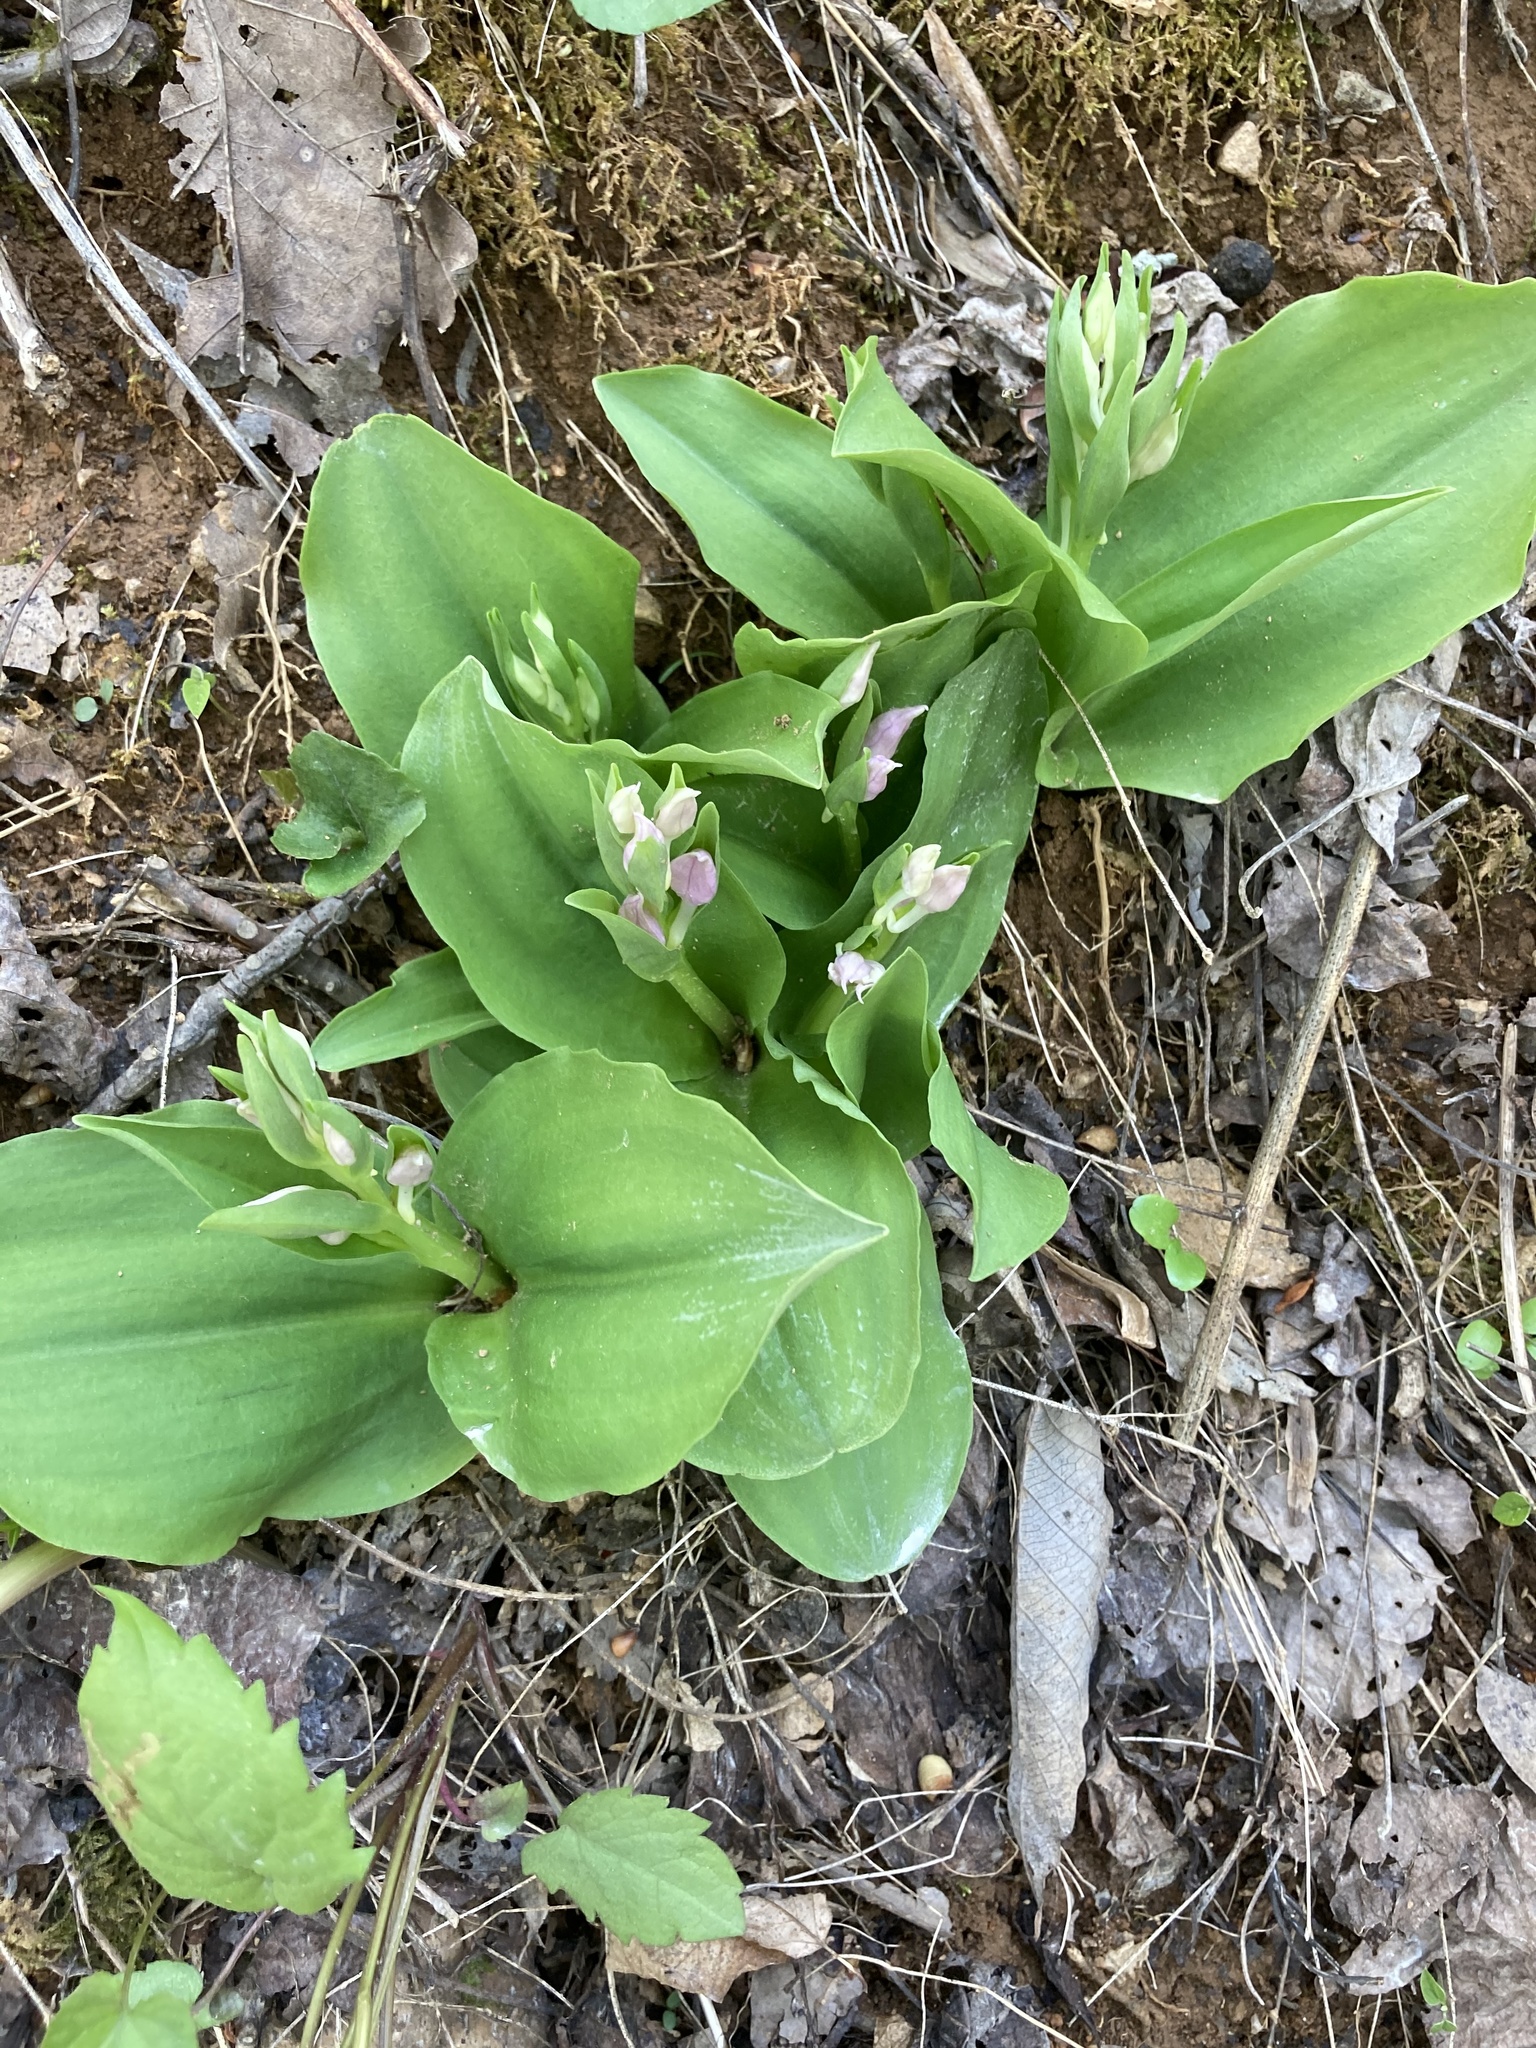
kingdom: Plantae
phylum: Tracheophyta
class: Liliopsida
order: Asparagales
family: Orchidaceae
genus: Galearis
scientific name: Galearis spectabilis
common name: Purple-hooded orchis
